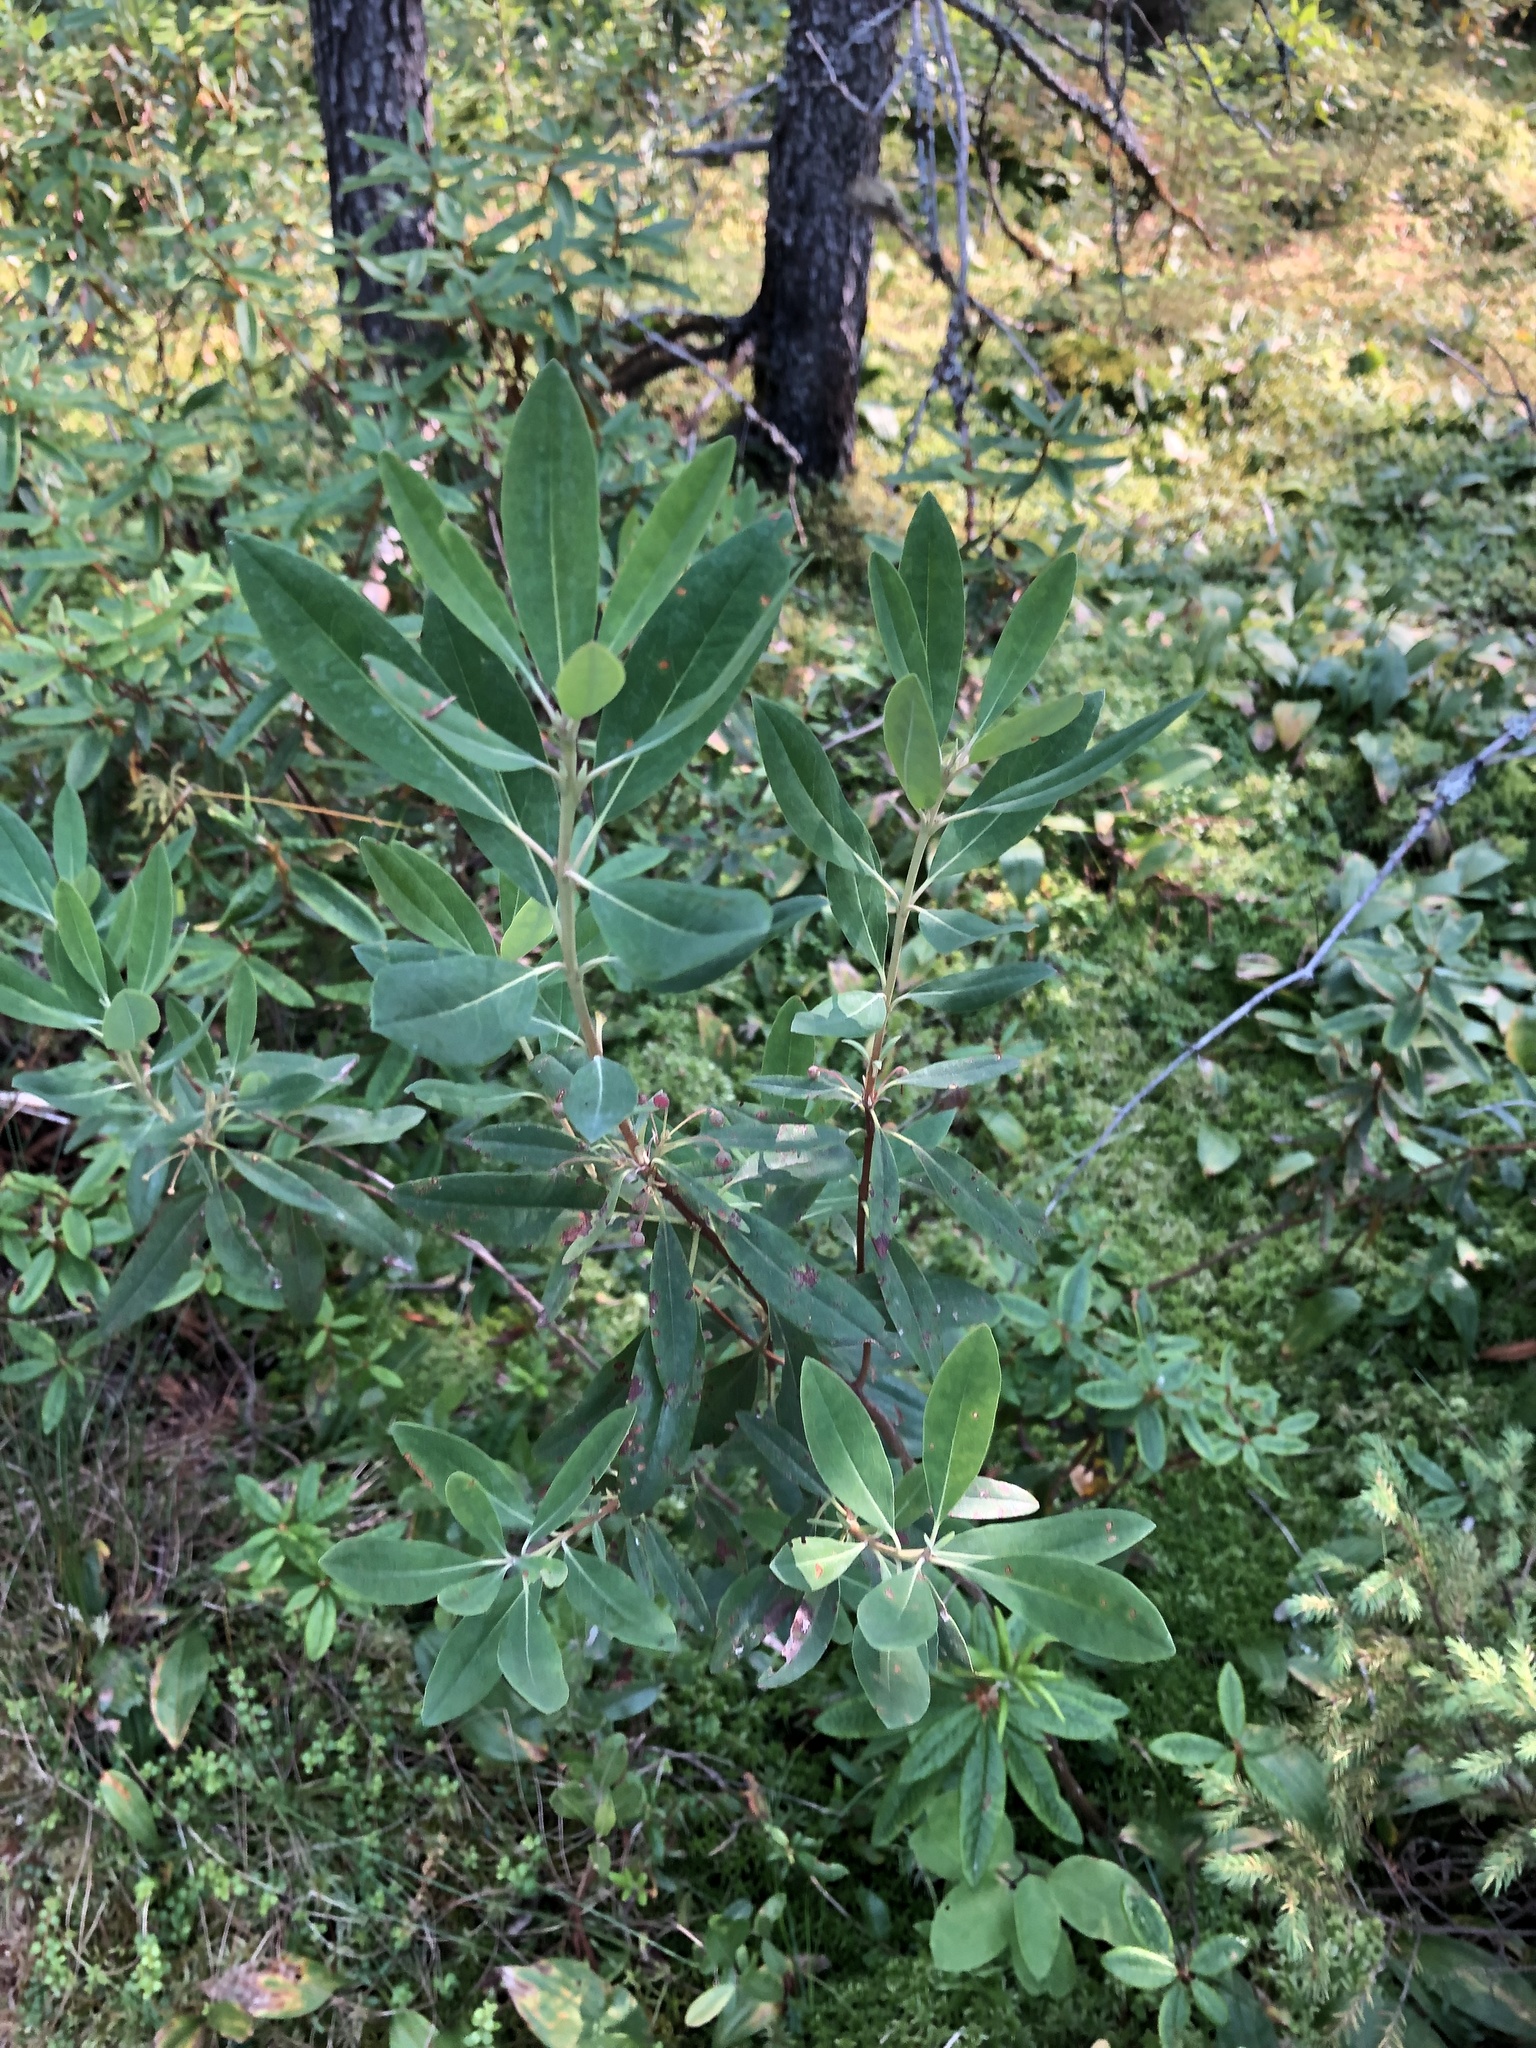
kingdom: Plantae
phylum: Tracheophyta
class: Magnoliopsida
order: Ericales
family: Ericaceae
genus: Kalmia
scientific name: Kalmia angustifolia
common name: Sheep-laurel
